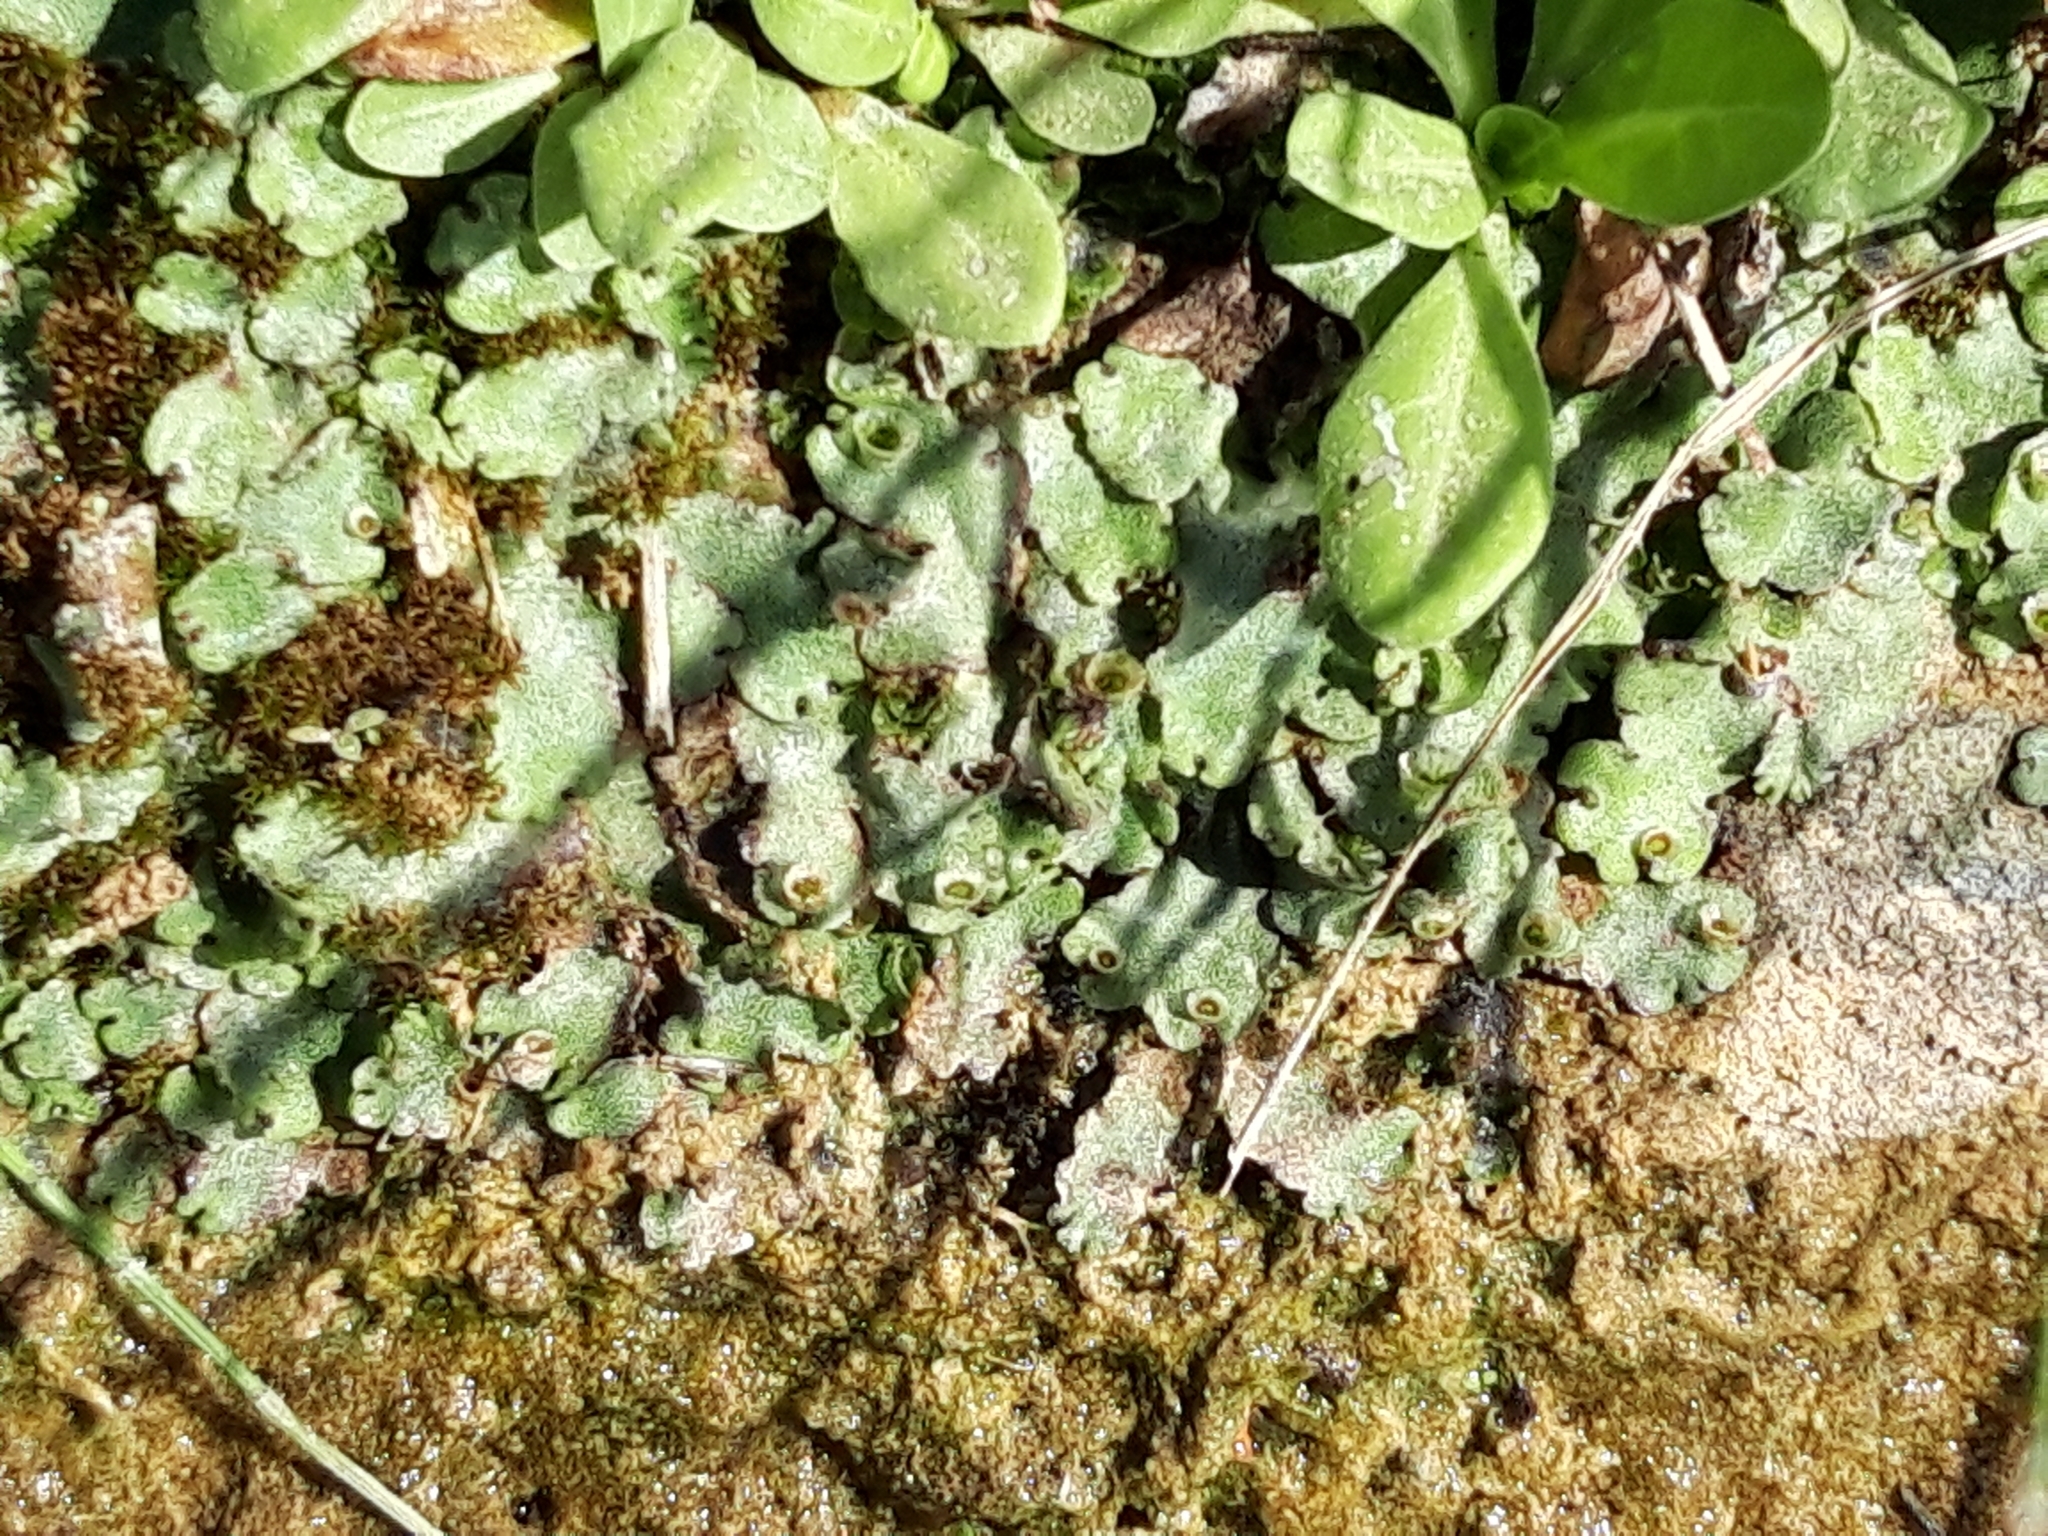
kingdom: Plantae
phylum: Marchantiophyta
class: Marchantiopsida
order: Marchantiales
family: Marchantiaceae
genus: Marchantia
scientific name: Marchantia paleacea
